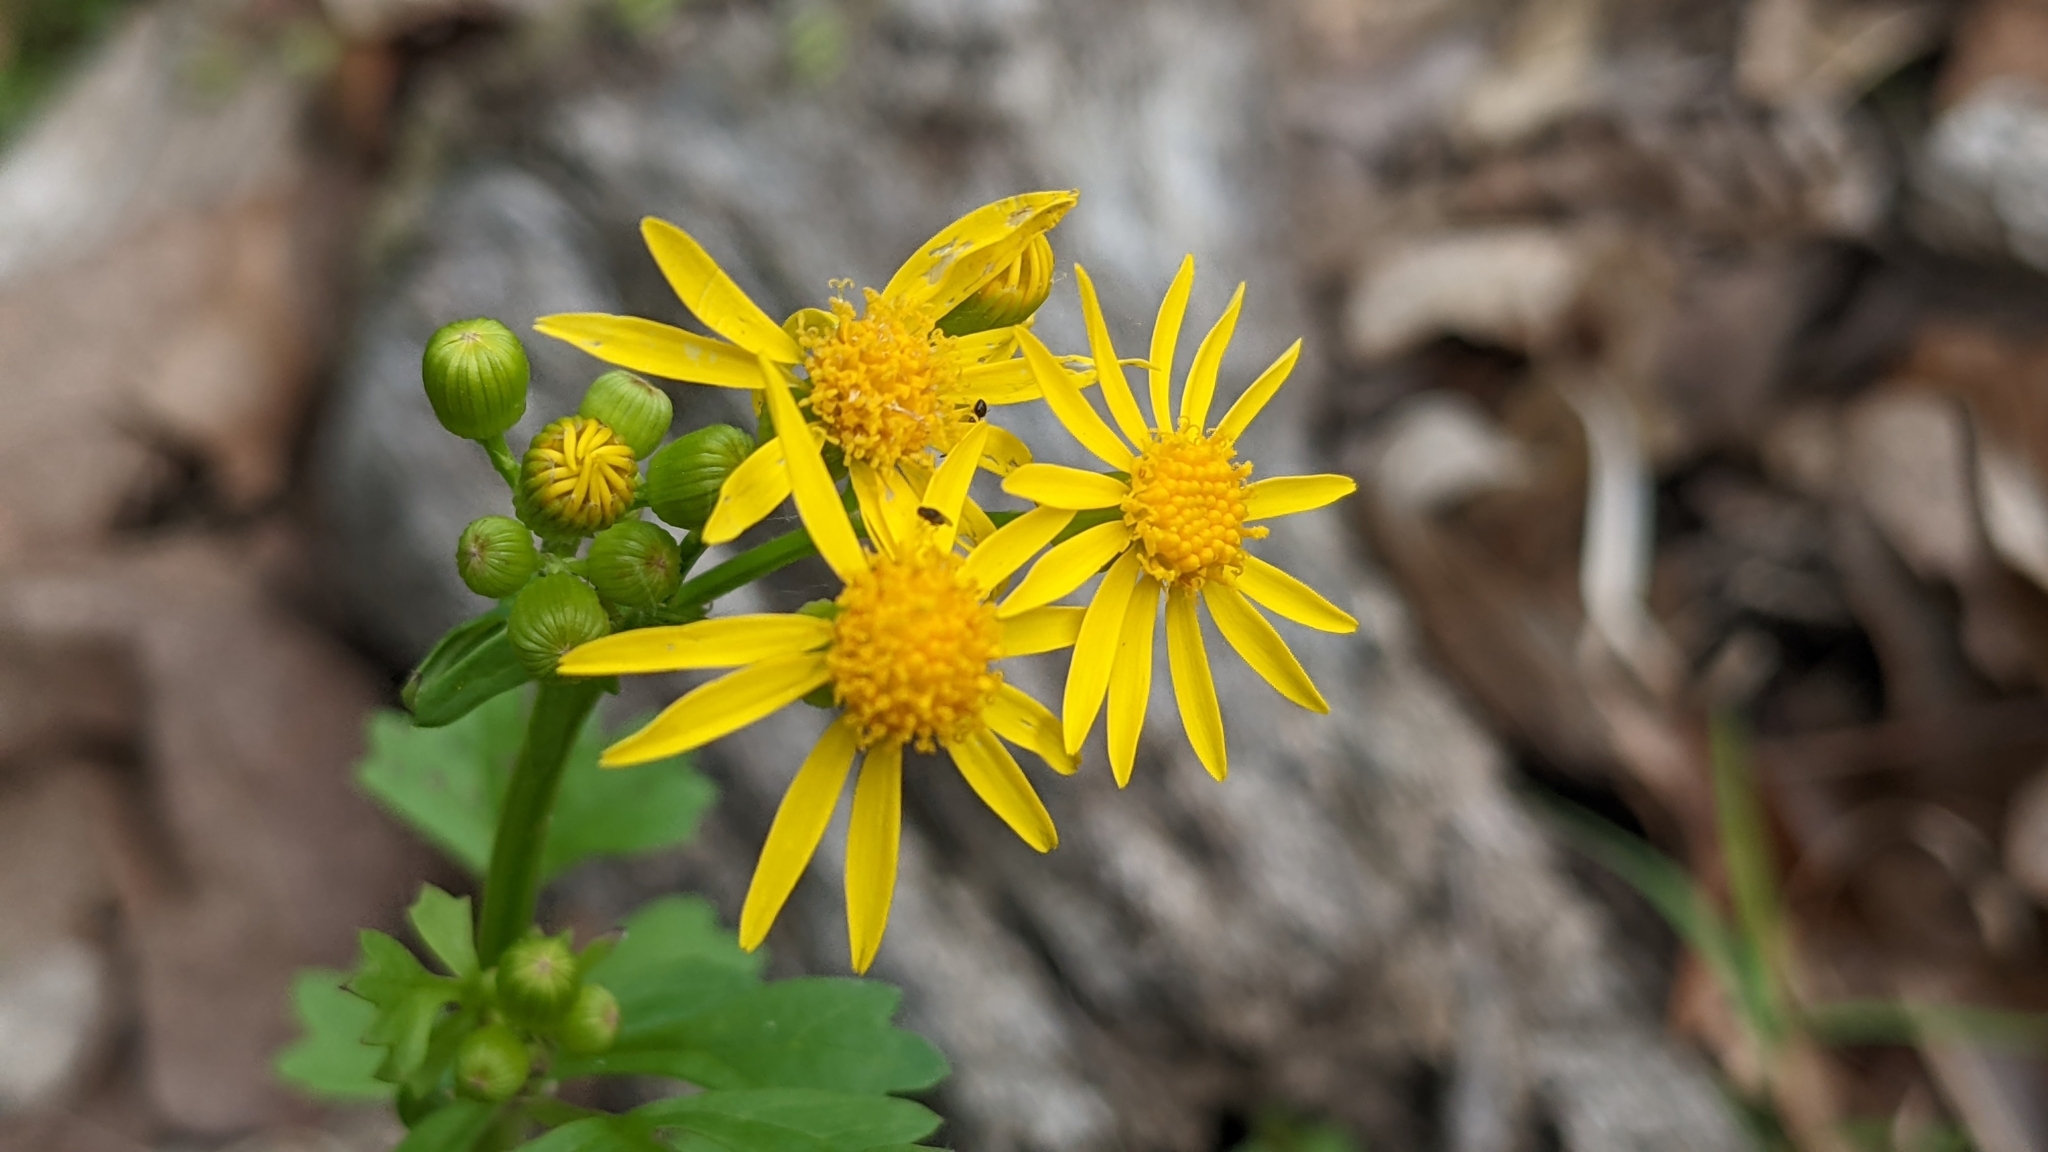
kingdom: Plantae
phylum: Tracheophyta
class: Magnoliopsida
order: Asterales
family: Asteraceae
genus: Packera
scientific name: Packera glabella
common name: Butterweed
